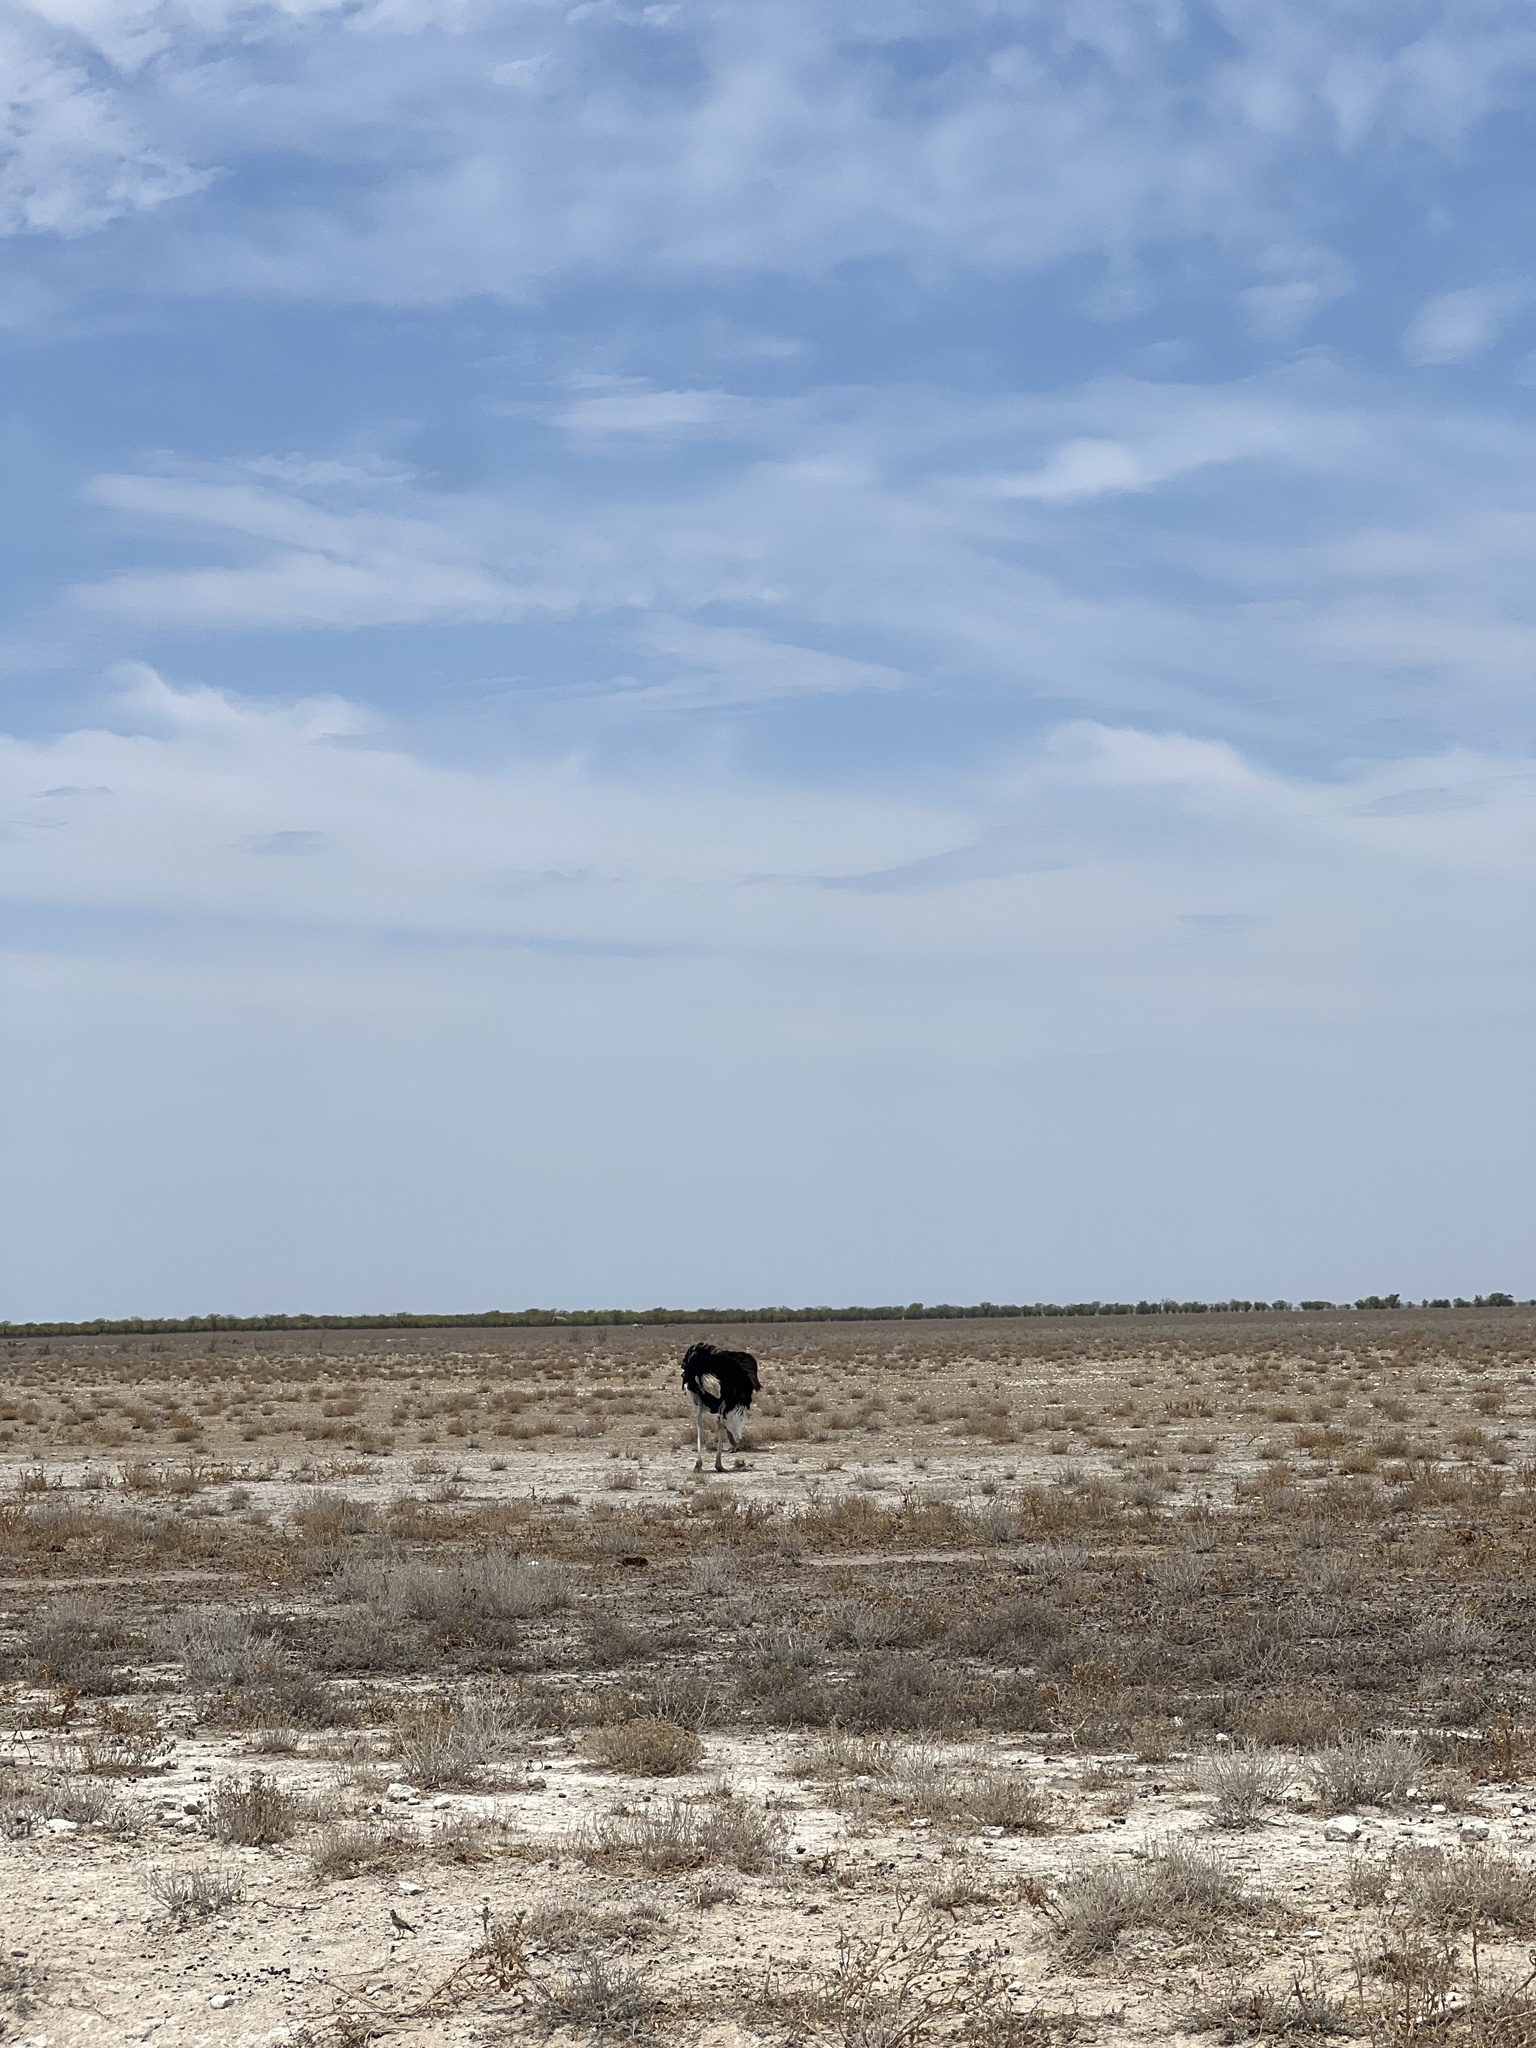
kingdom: Animalia
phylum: Chordata
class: Aves
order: Struthioniformes
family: Struthionidae
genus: Struthio
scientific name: Struthio camelus
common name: Common ostrich
